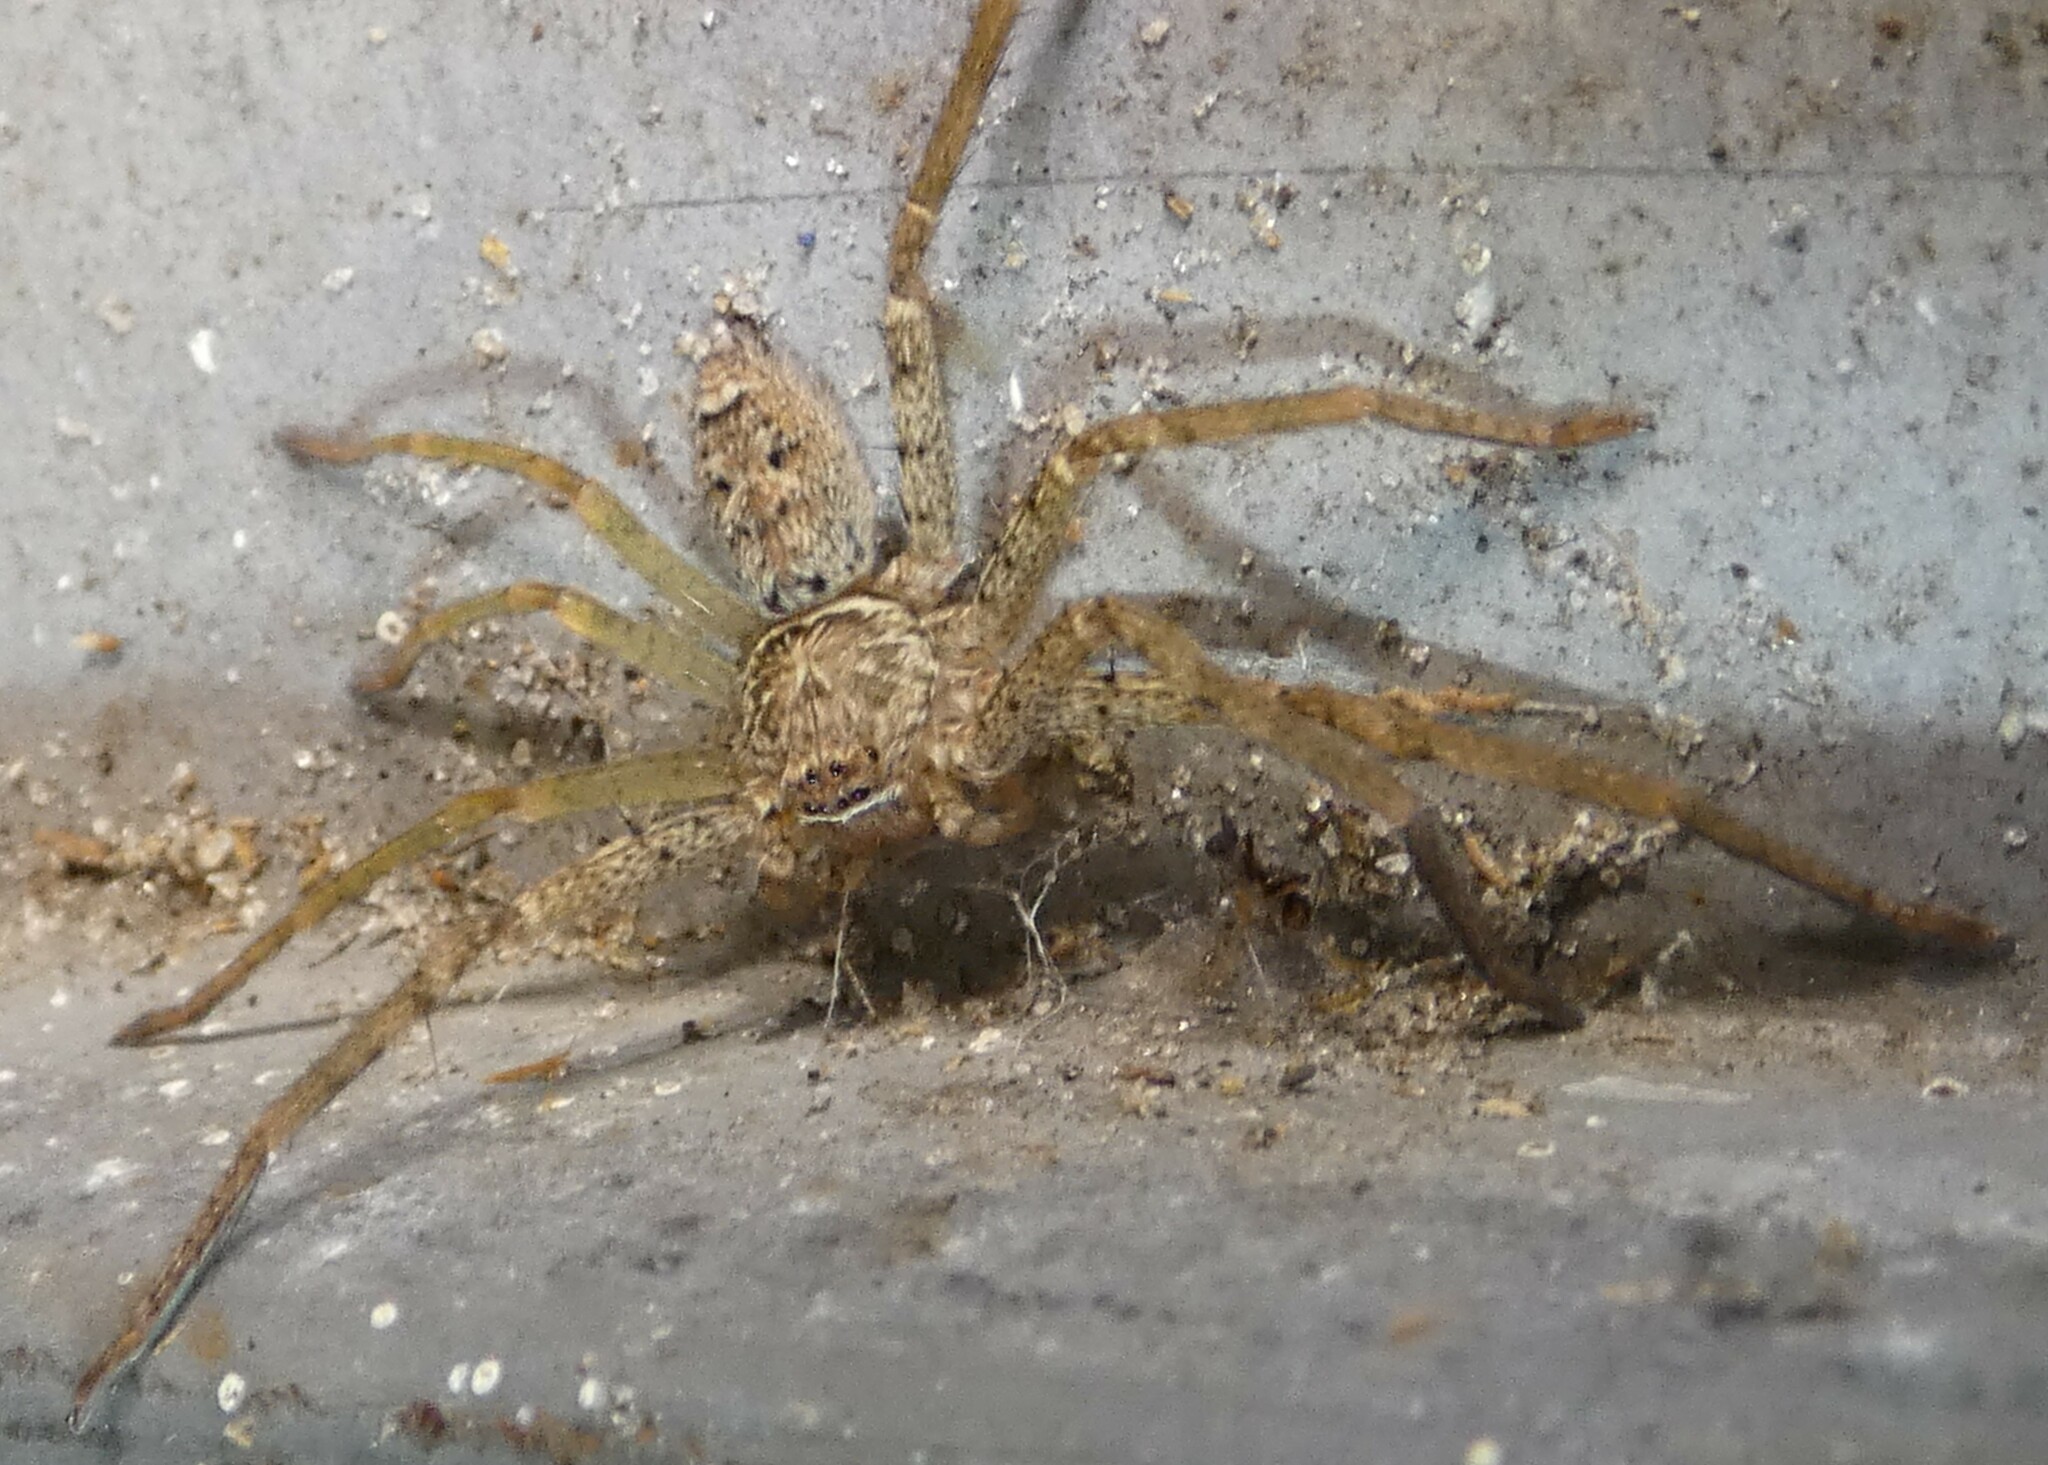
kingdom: Animalia
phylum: Arthropoda
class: Arachnida
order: Araneae
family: Sparassidae
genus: Heteropoda
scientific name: Heteropoda venatoria
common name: Huntsman spider
